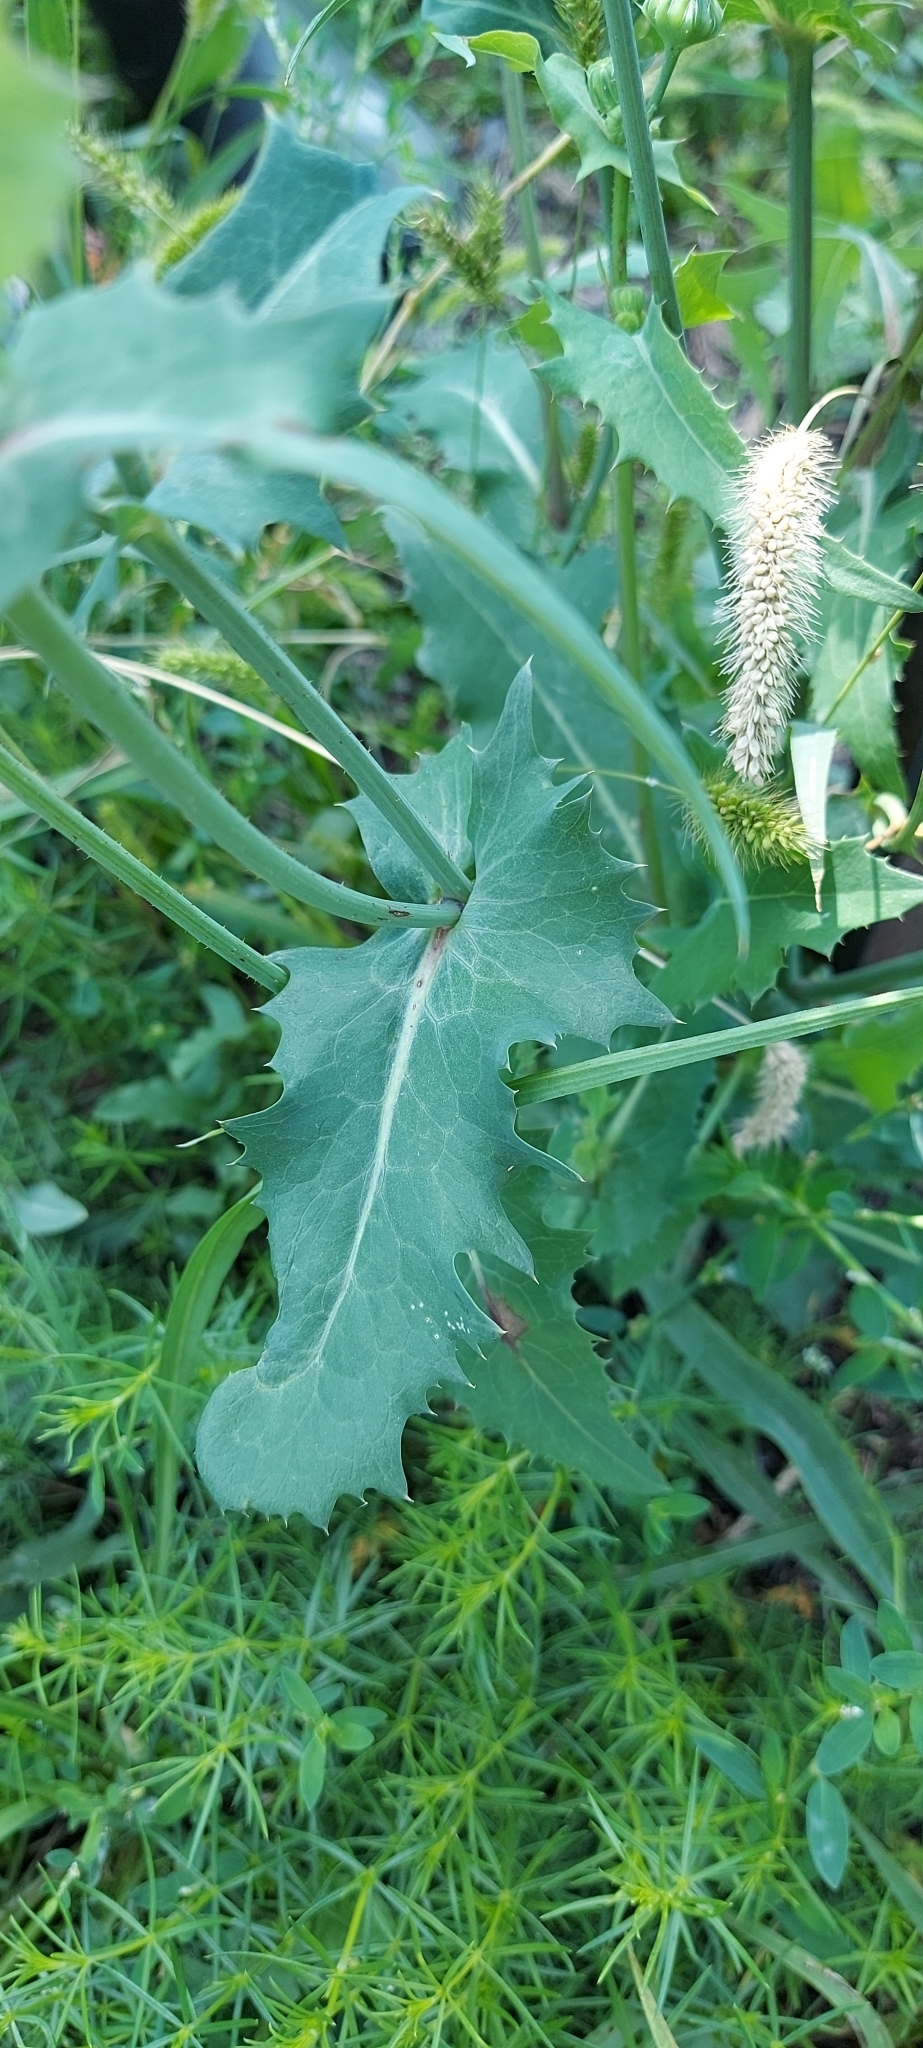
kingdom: Plantae
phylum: Tracheophyta
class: Magnoliopsida
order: Asterales
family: Asteraceae
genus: Sonchus
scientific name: Sonchus oleraceus
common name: Common sowthistle
